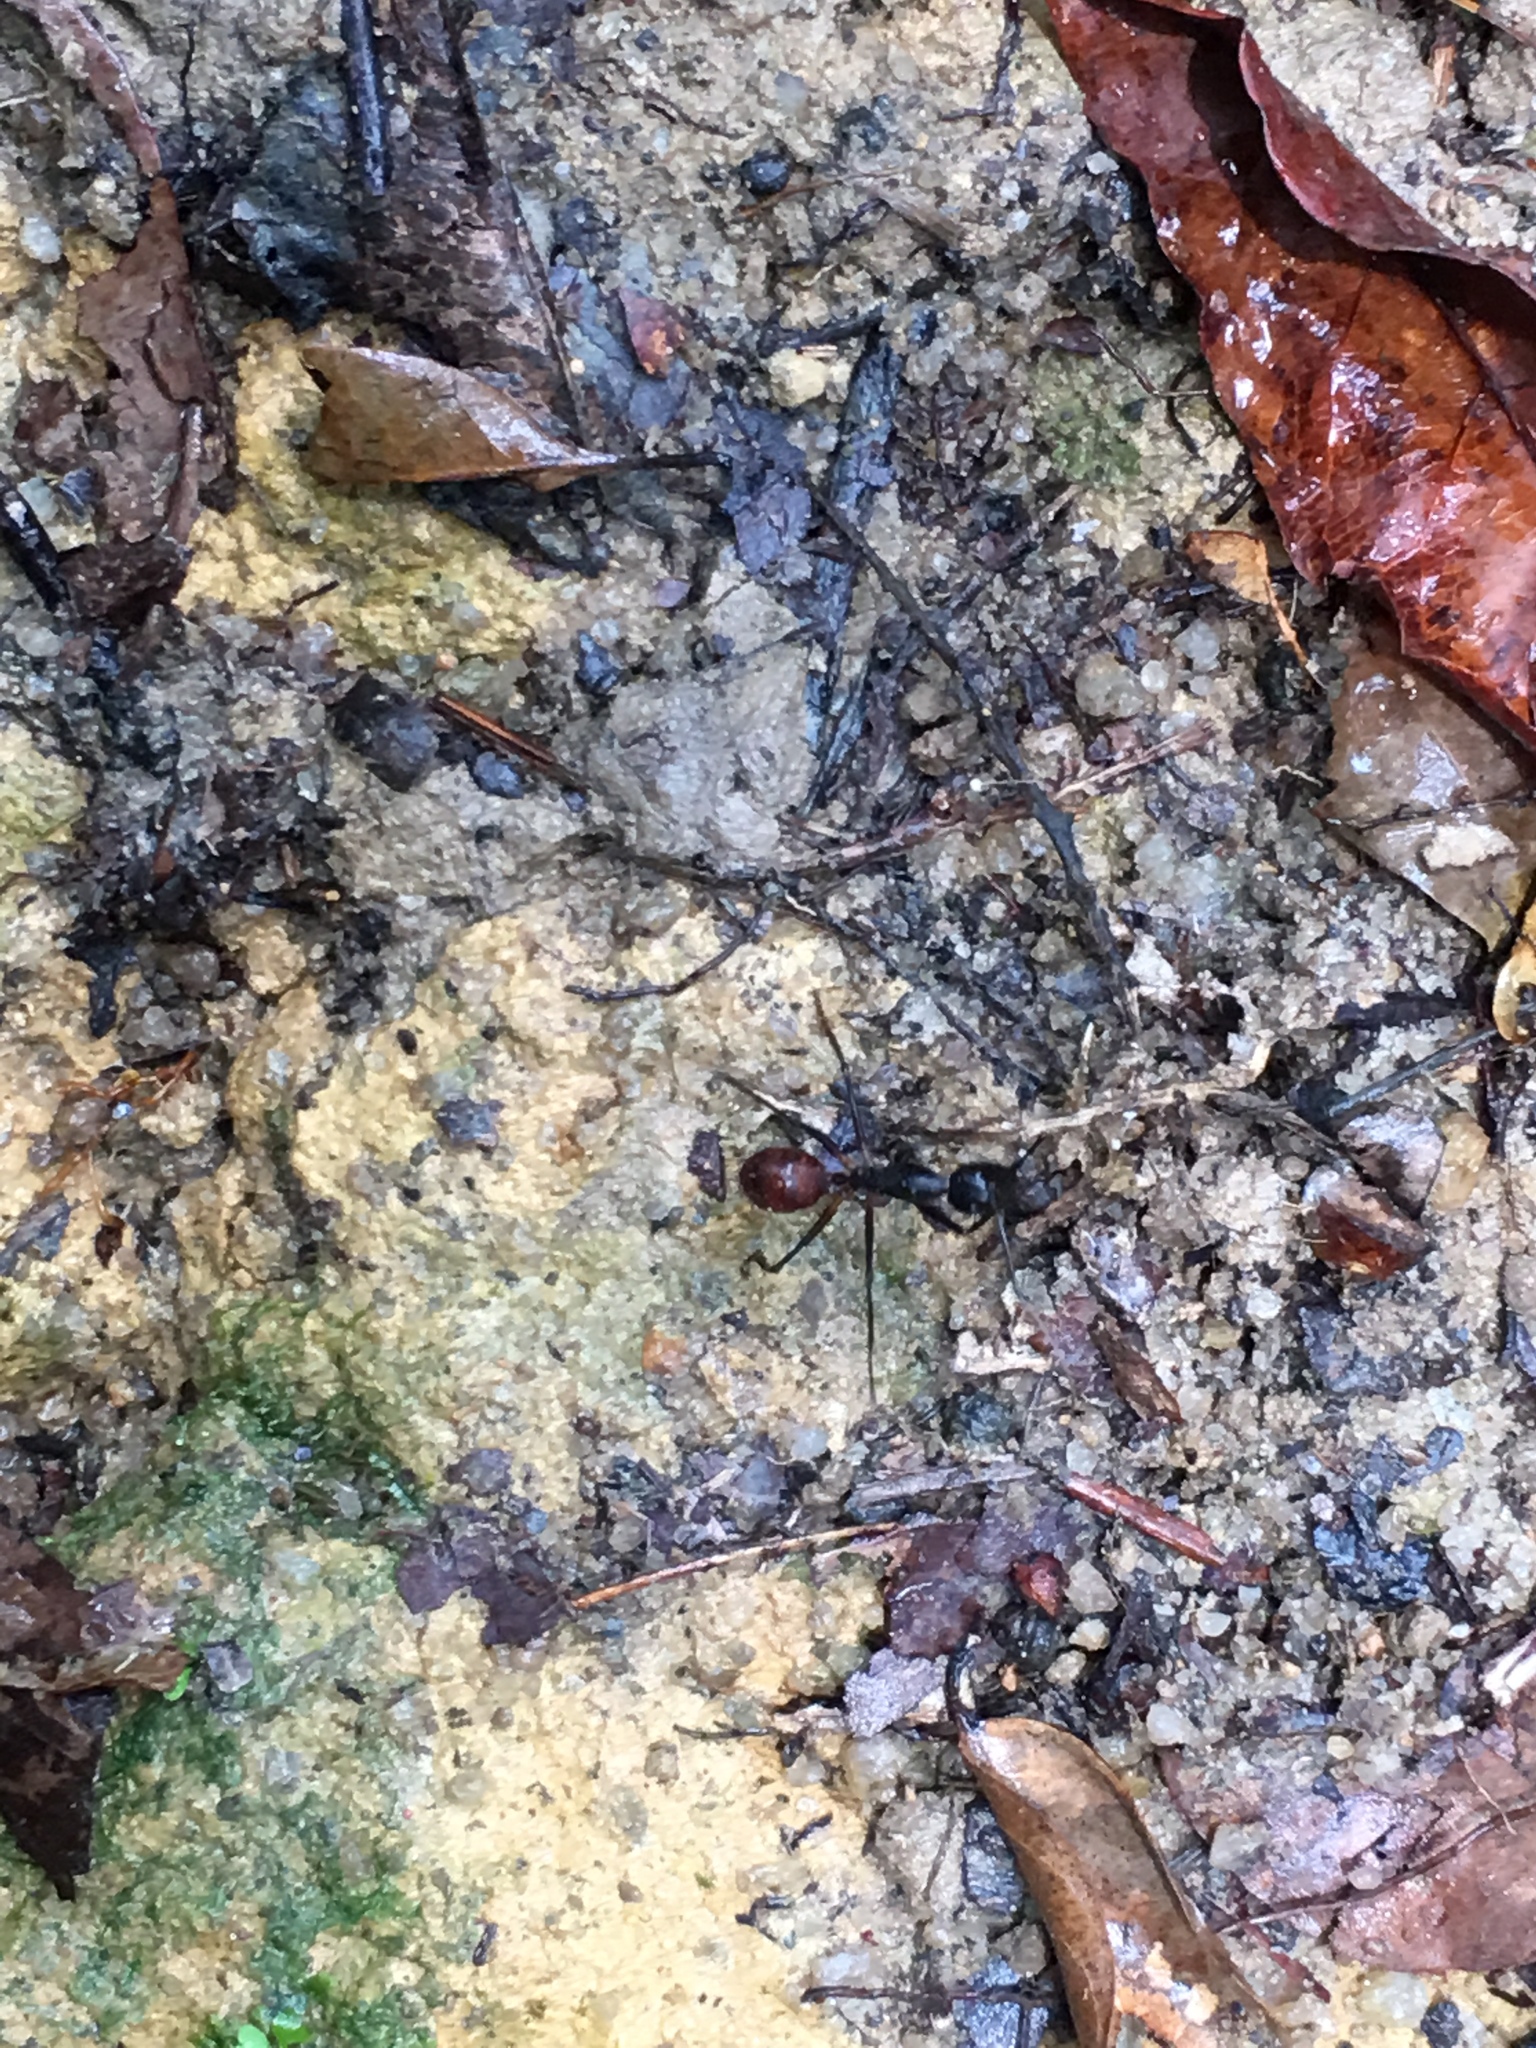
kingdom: Animalia
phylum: Arthropoda
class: Insecta
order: Hymenoptera
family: Formicidae
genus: Dinomyrmex
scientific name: Dinomyrmex
